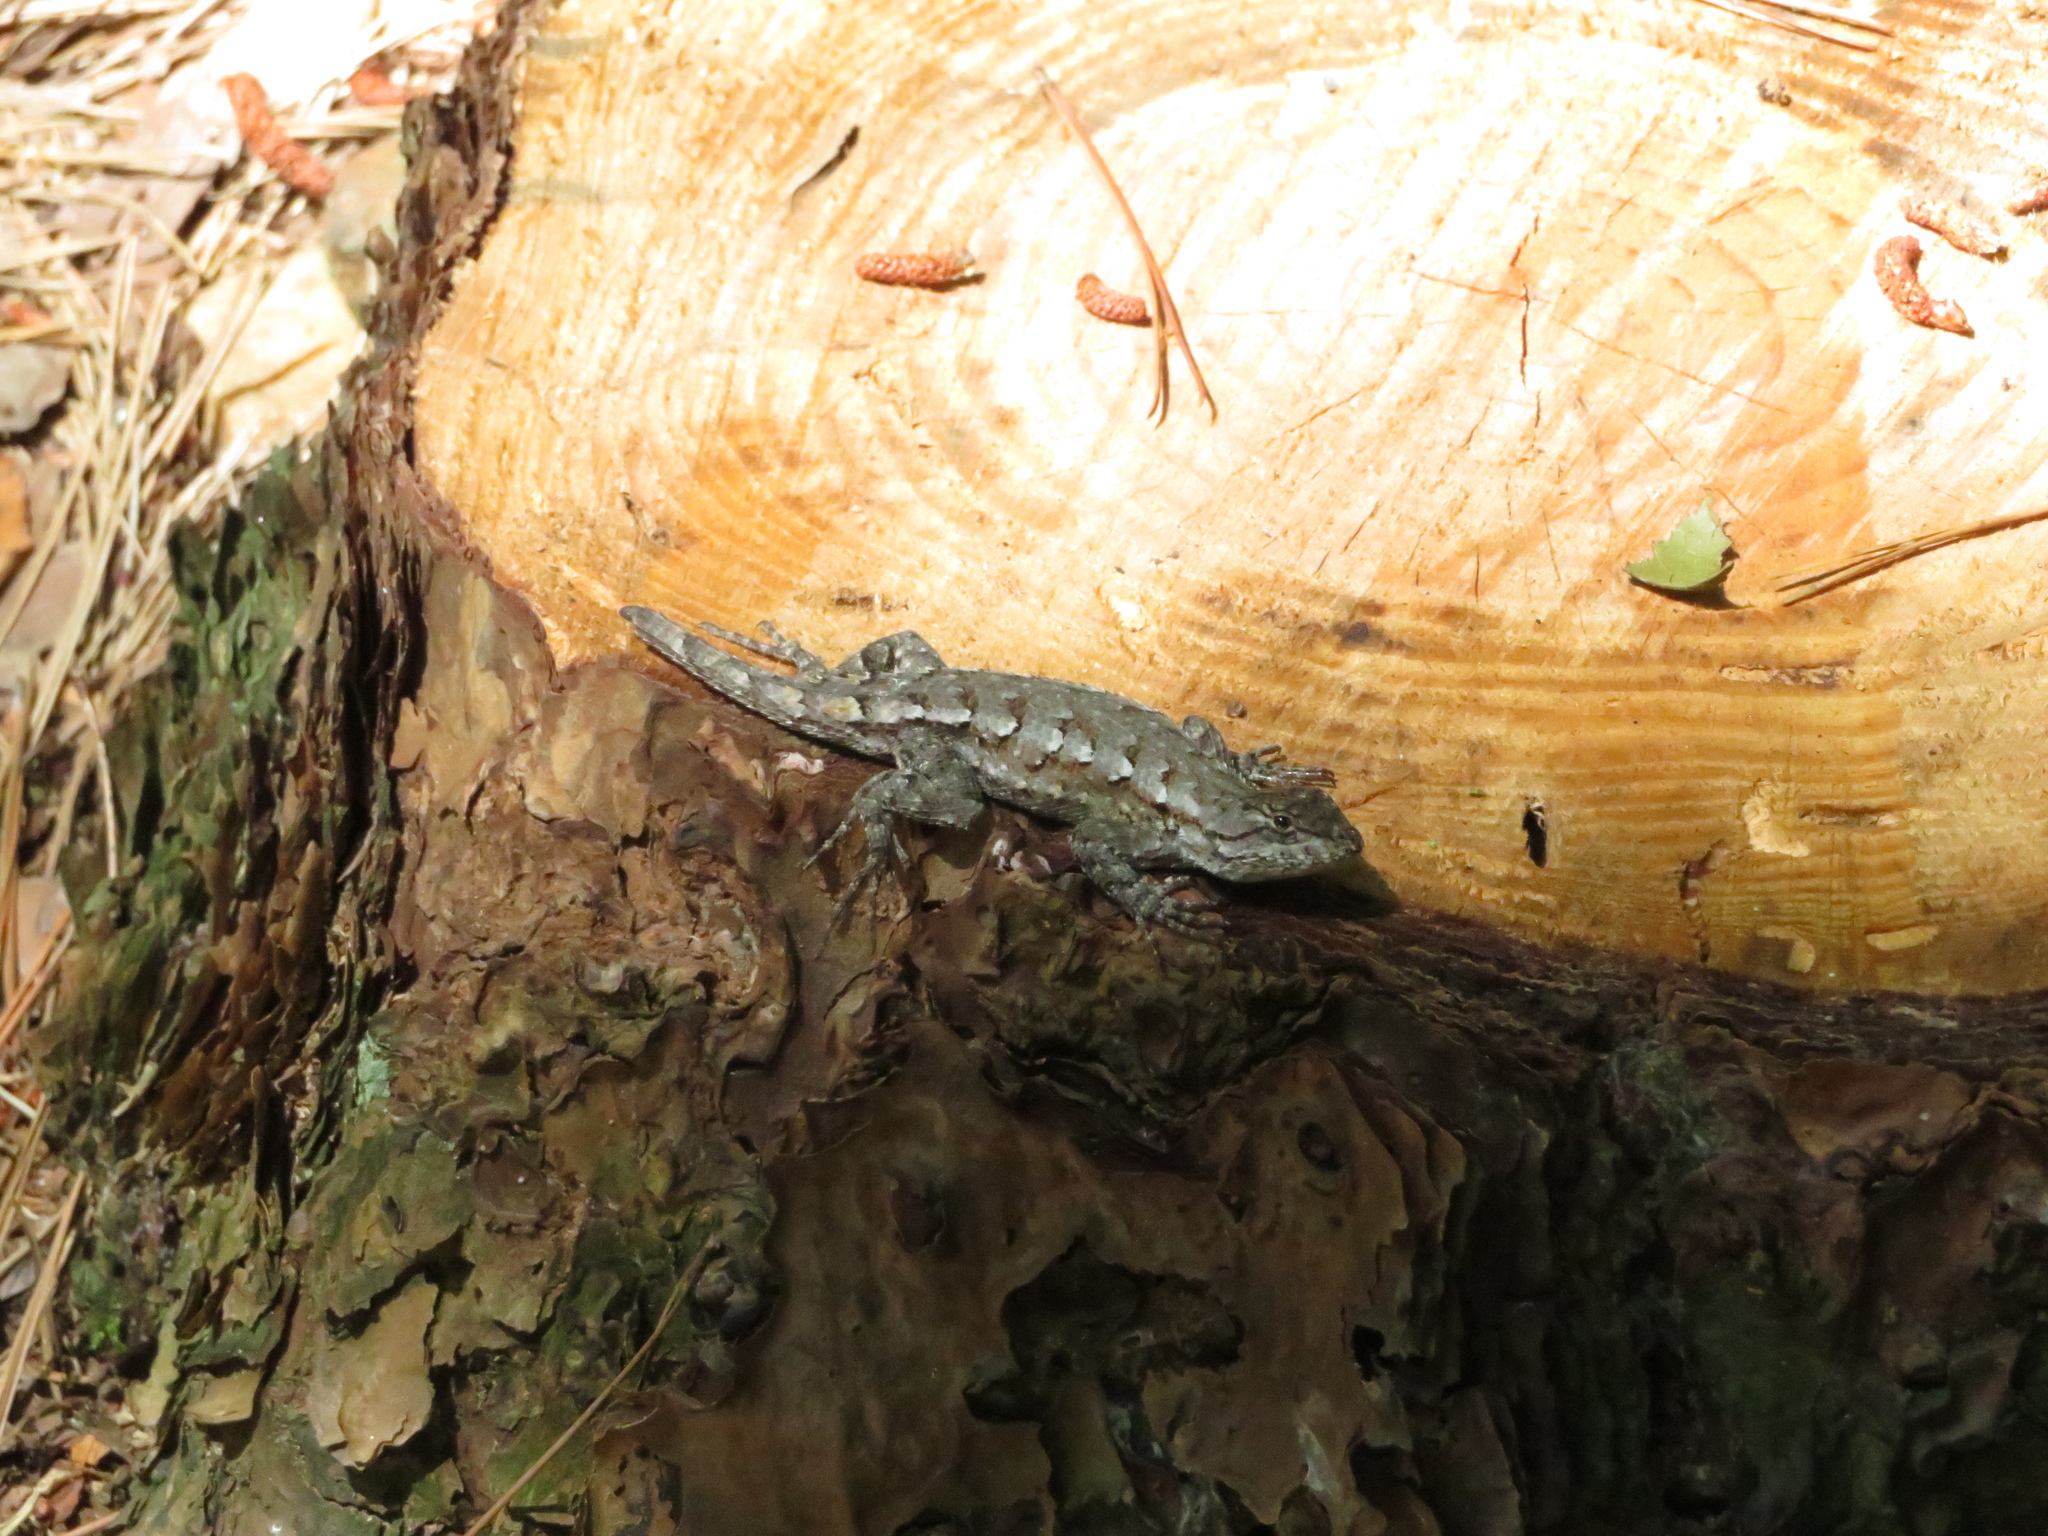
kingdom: Animalia
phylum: Chordata
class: Squamata
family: Phrynosomatidae
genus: Sceloporus
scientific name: Sceloporus undulatus
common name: Eastern fence lizard
